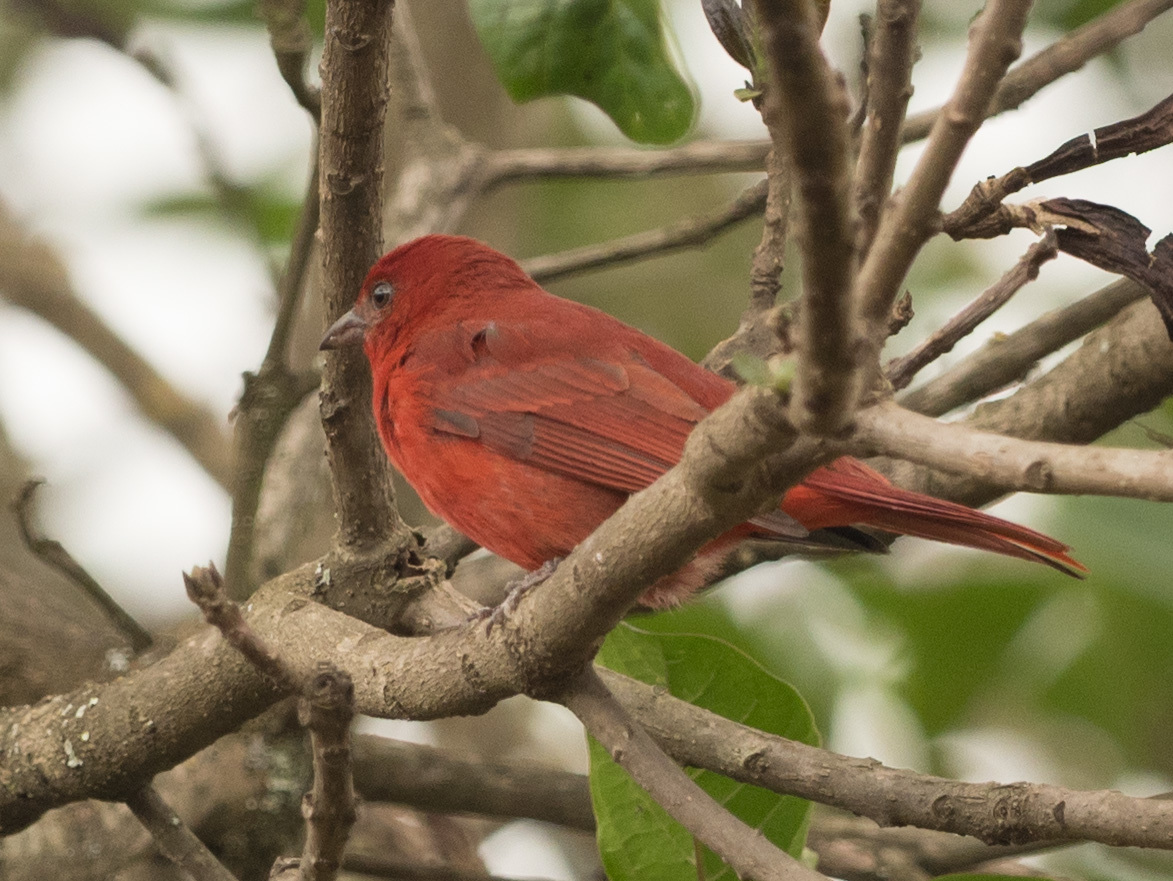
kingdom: Animalia
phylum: Chordata
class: Aves
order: Passeriformes
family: Cardinalidae
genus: Piranga
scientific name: Piranga flava
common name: Red tanager
